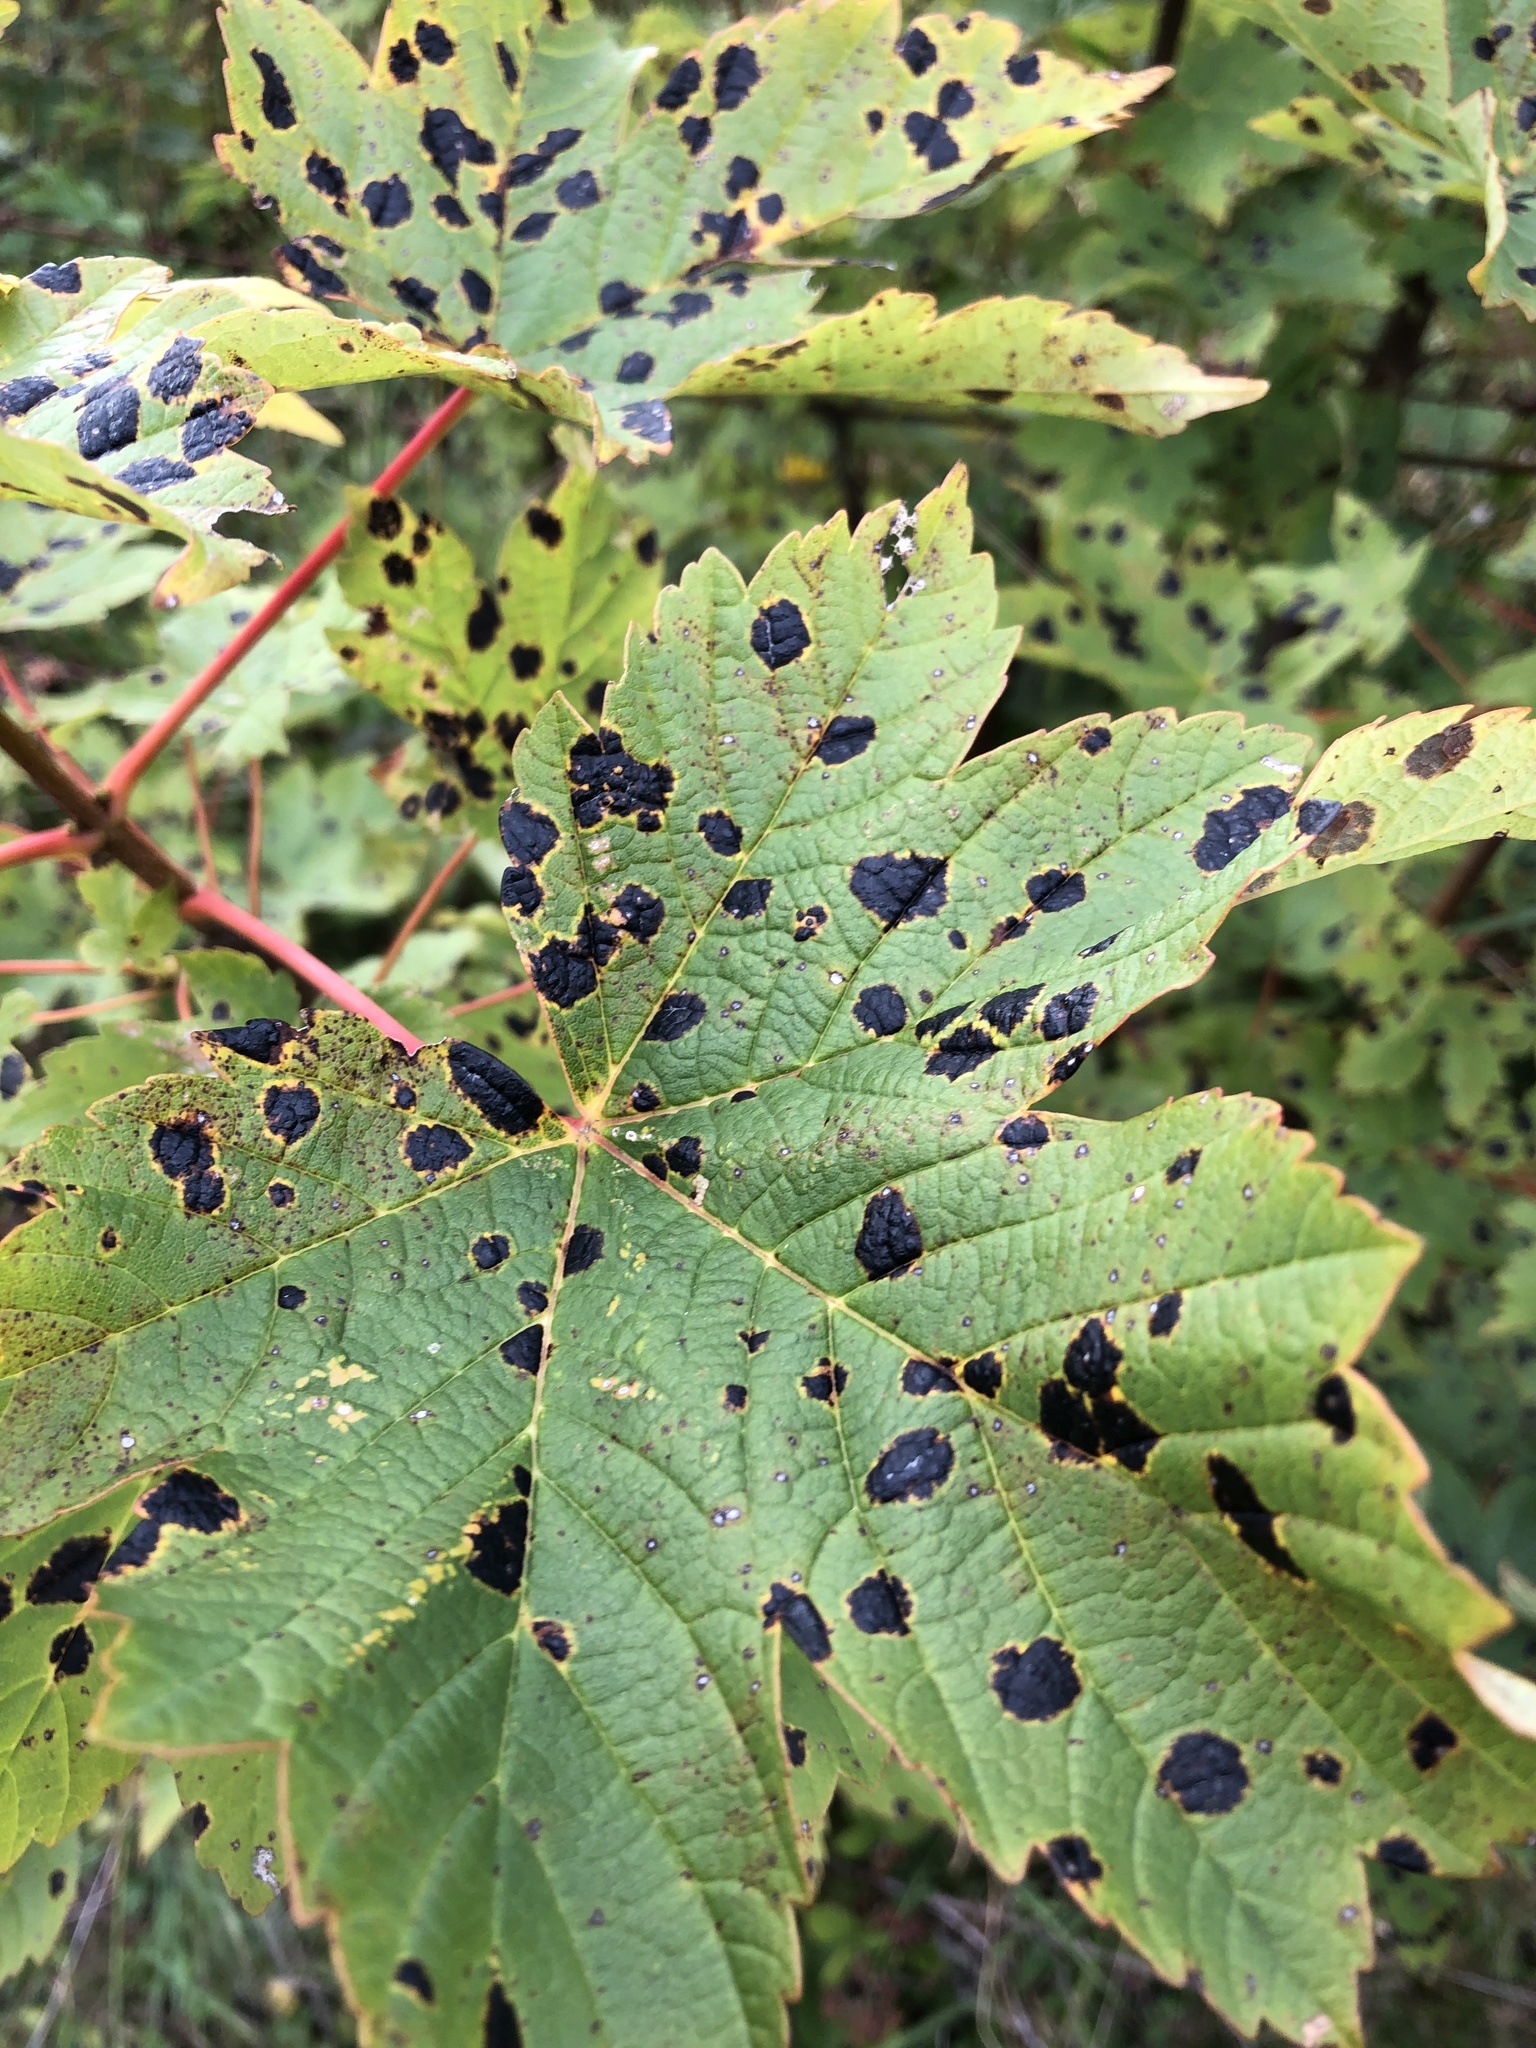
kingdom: Fungi
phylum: Ascomycota
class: Leotiomycetes
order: Rhytismatales
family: Rhytismataceae
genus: Rhytisma
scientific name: Rhytisma acerinum
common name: European tar spot
